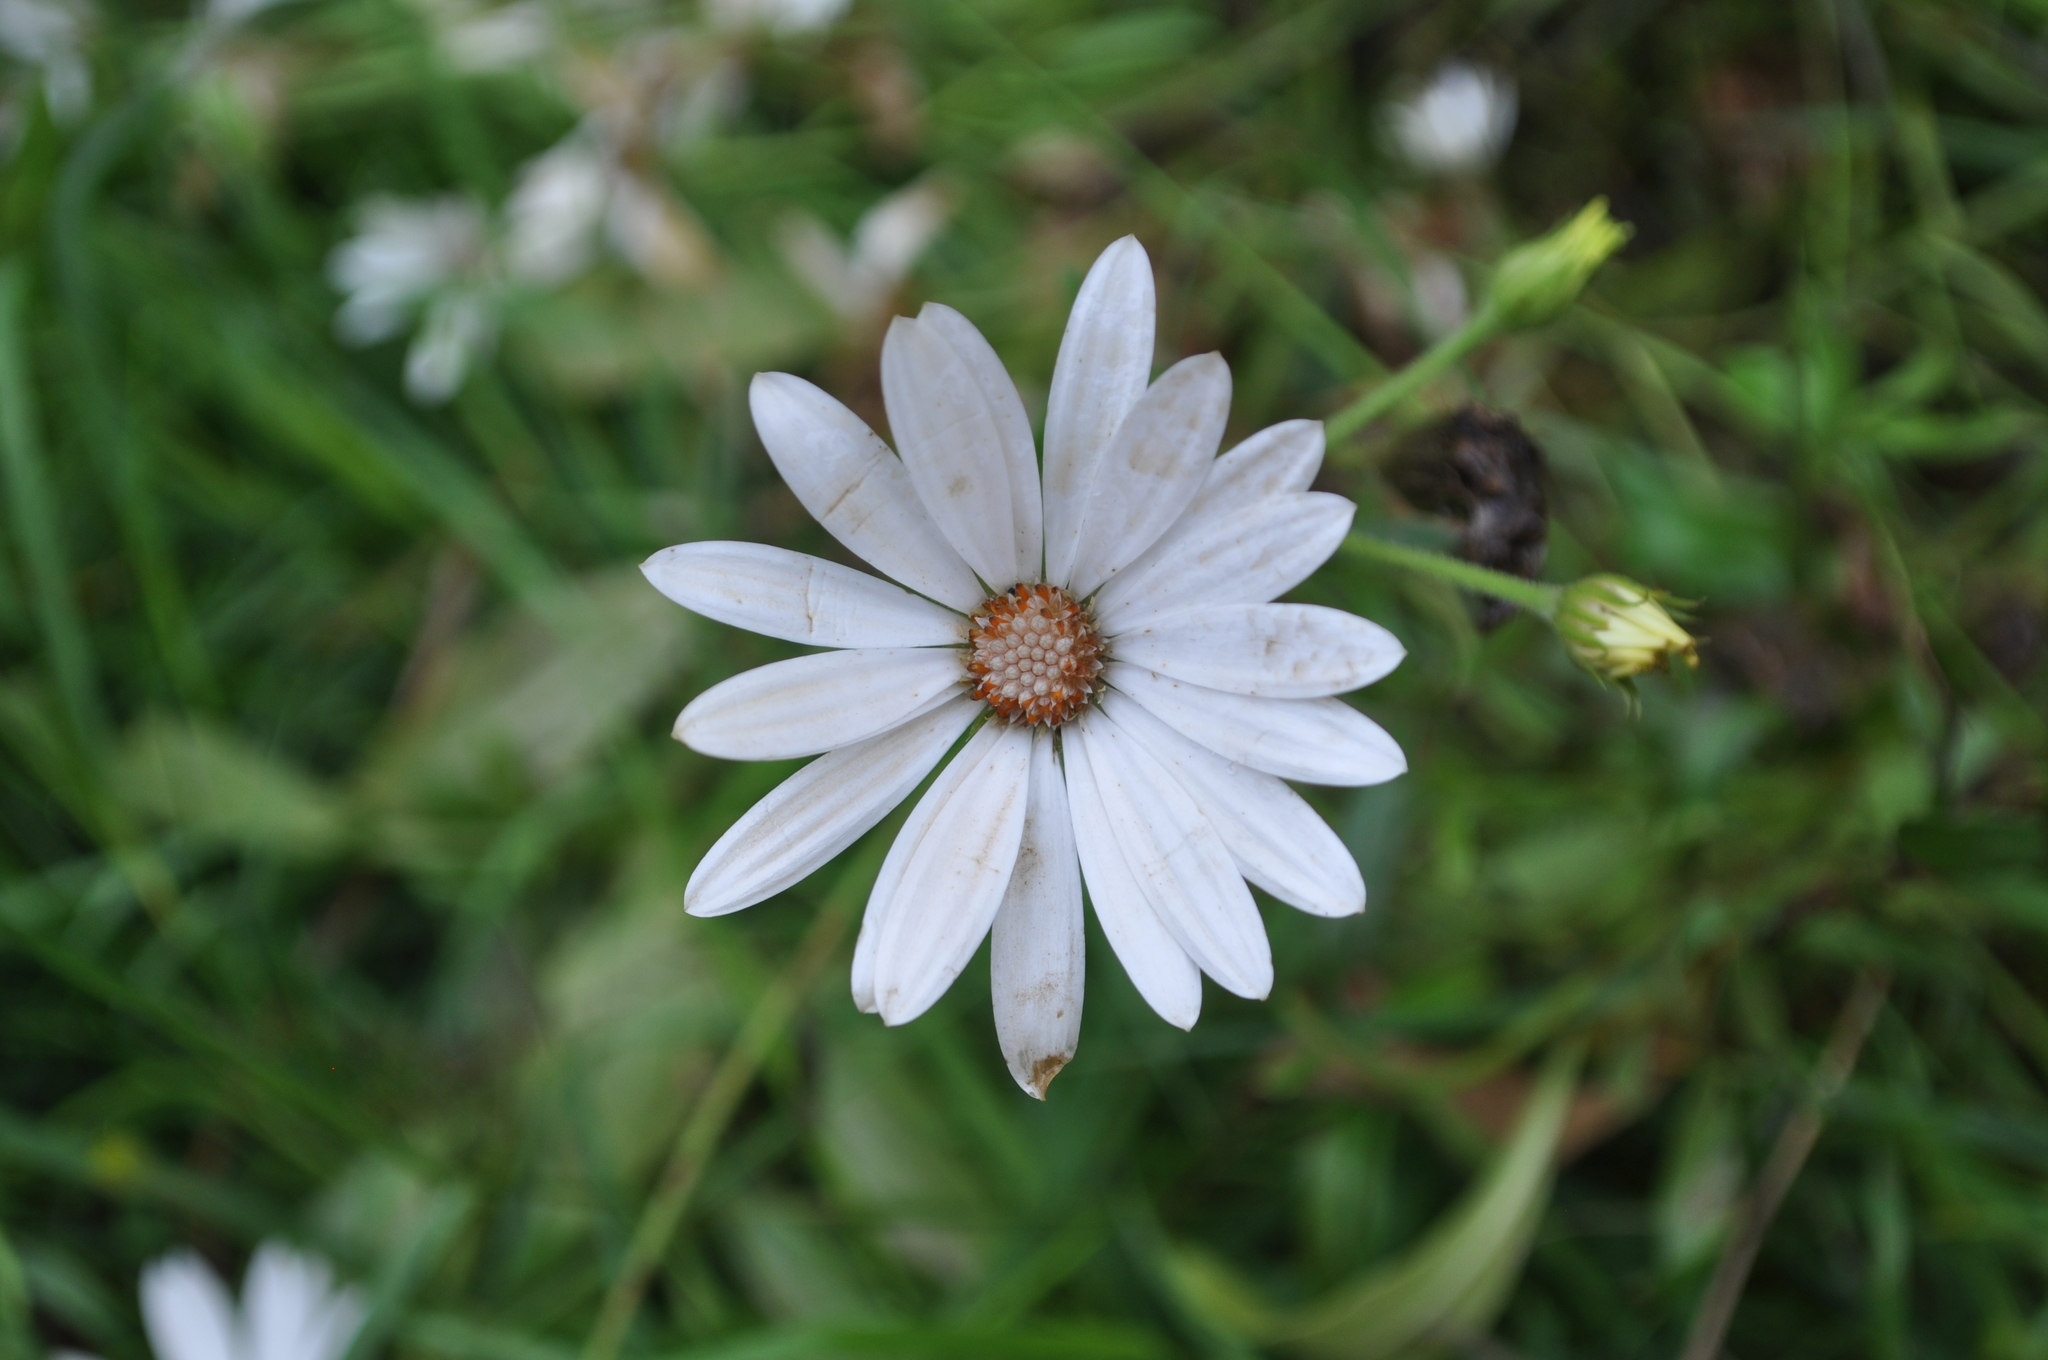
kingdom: Plantae
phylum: Tracheophyta
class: Magnoliopsida
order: Asterales
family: Asteraceae
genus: Dimorphotheca
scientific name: Dimorphotheca ecklonis
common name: Vanstaden's river daisy
